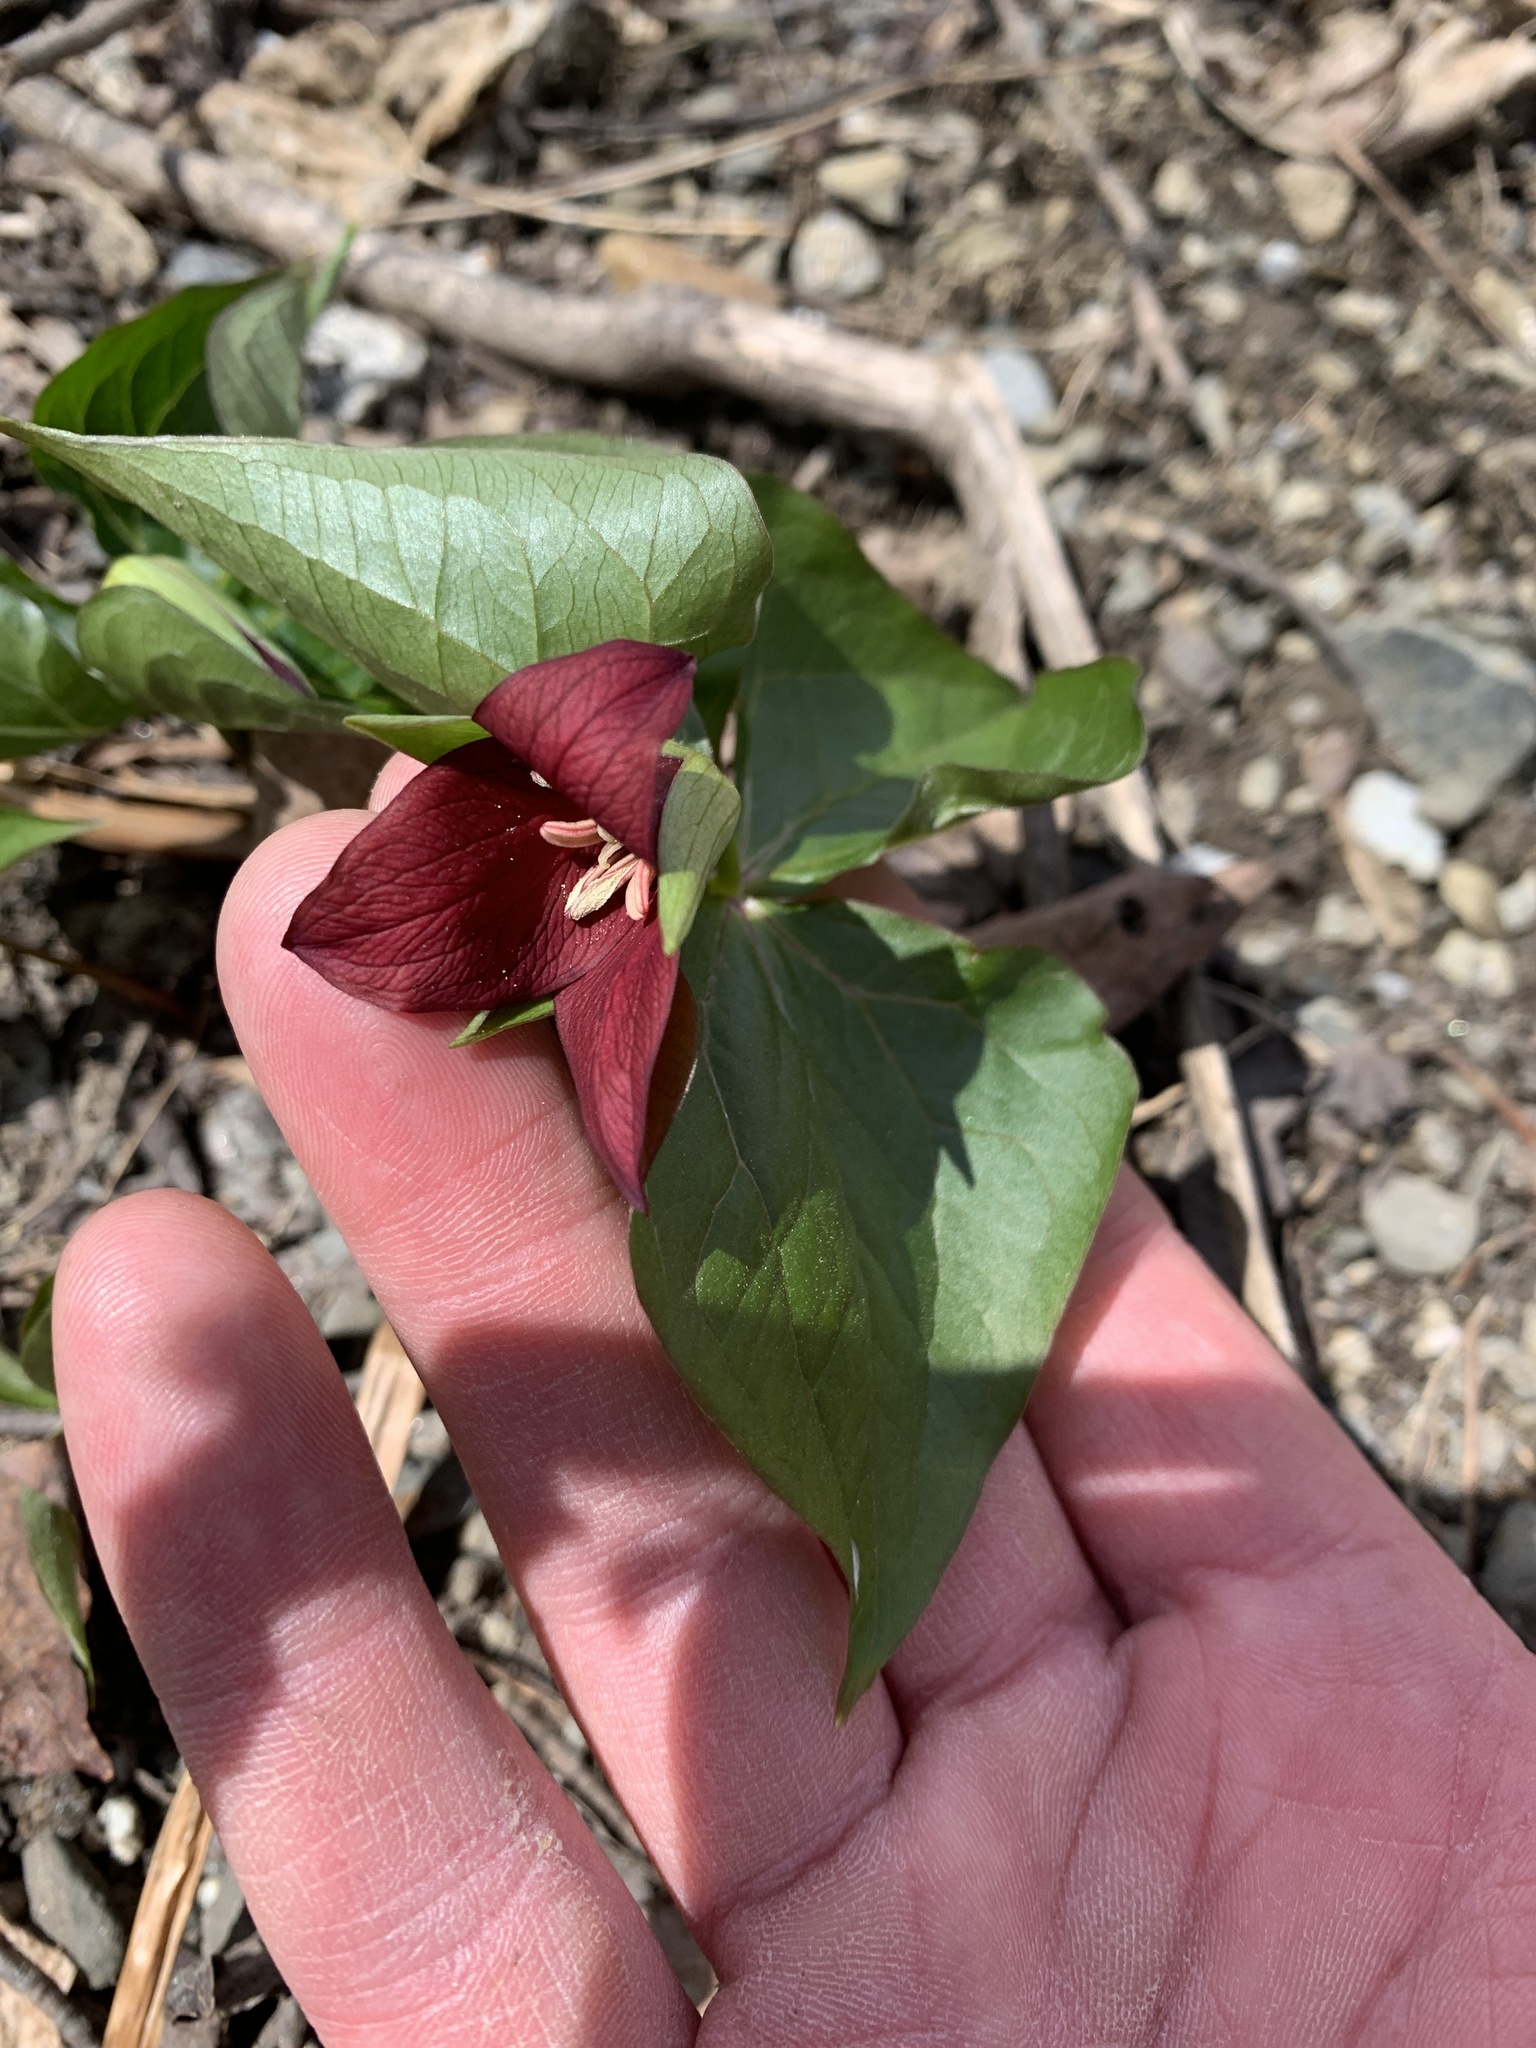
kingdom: Plantae
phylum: Tracheophyta
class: Liliopsida
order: Liliales
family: Melanthiaceae
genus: Trillium
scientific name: Trillium erectum
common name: Purple trillium
